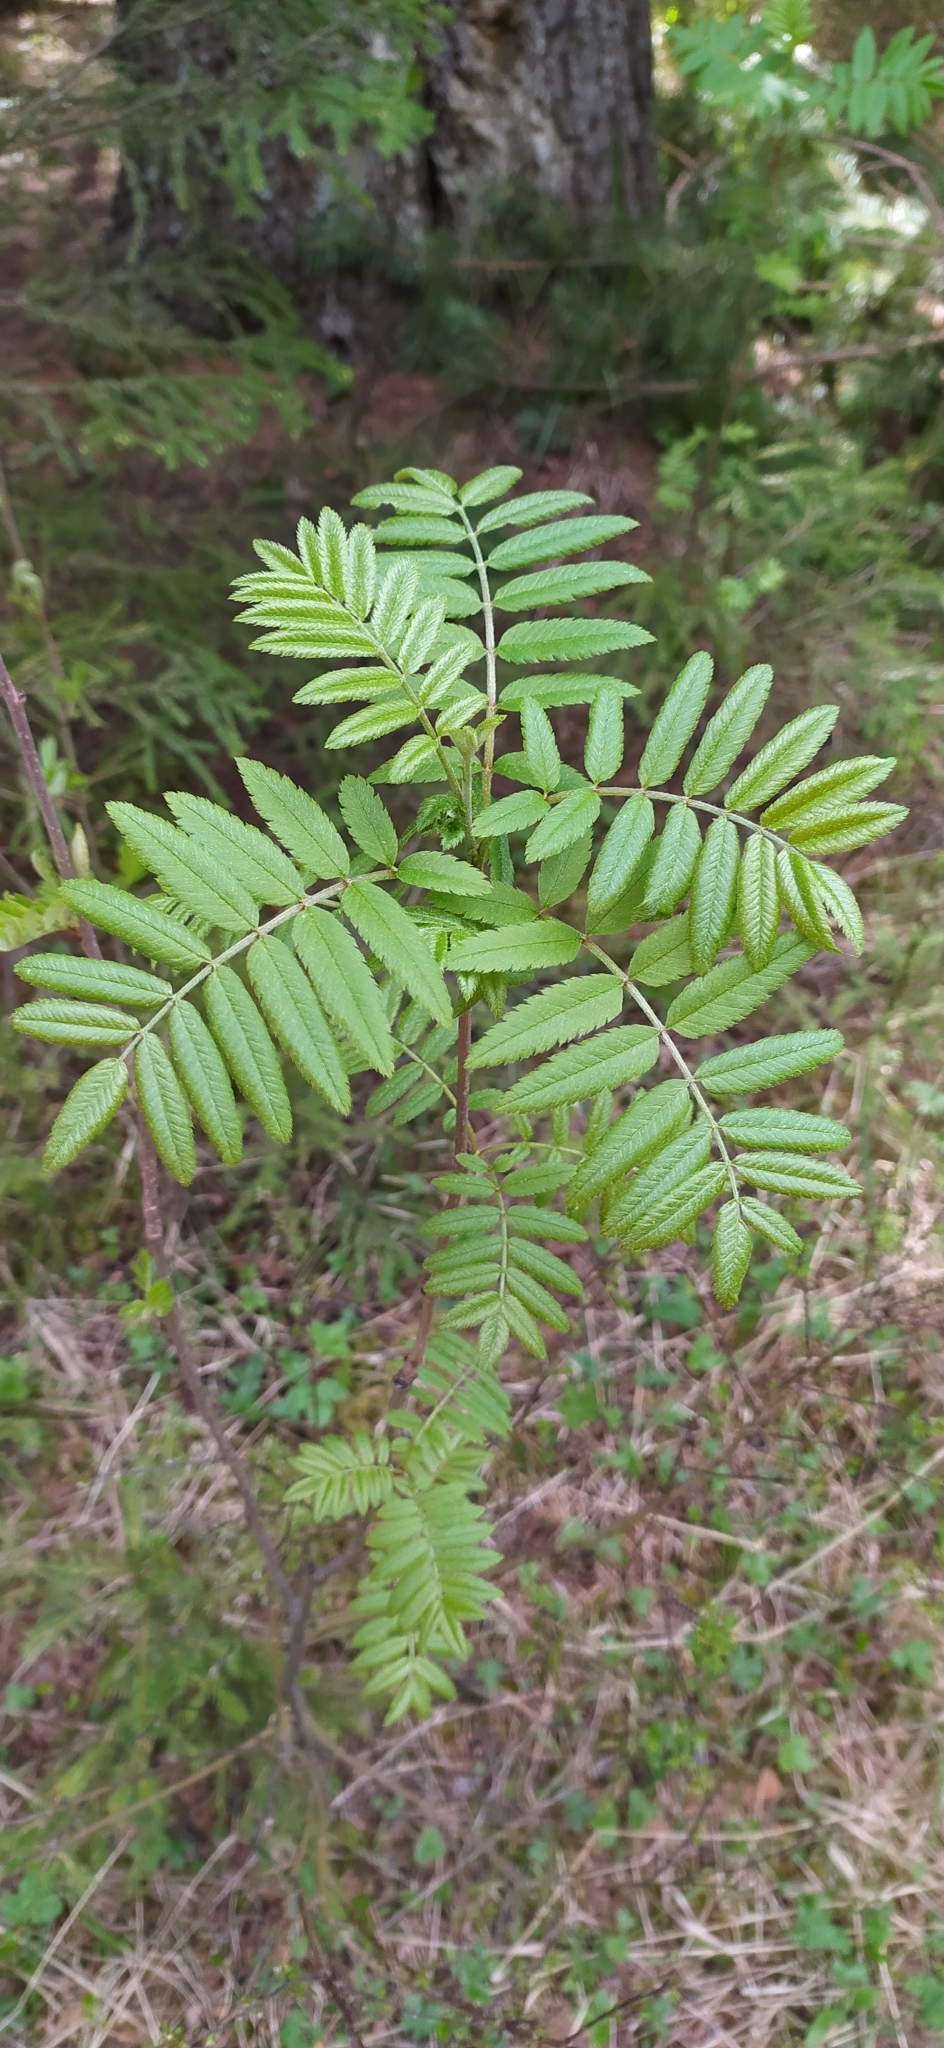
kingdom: Plantae
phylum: Tracheophyta
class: Magnoliopsida
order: Rosales
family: Rosaceae
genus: Sorbus
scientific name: Sorbus aucuparia
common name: Rowan
